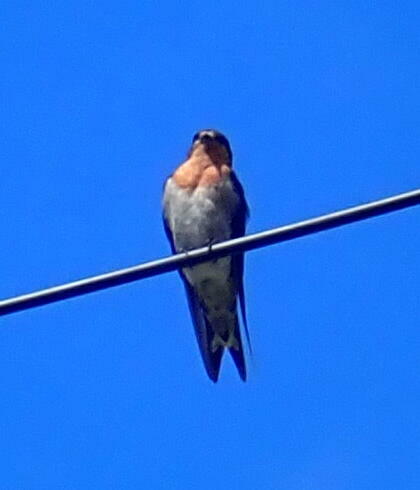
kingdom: Animalia
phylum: Chordata
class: Aves
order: Passeriformes
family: Hirundinidae
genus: Hirundo
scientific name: Hirundo neoxena
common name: Welcome swallow
